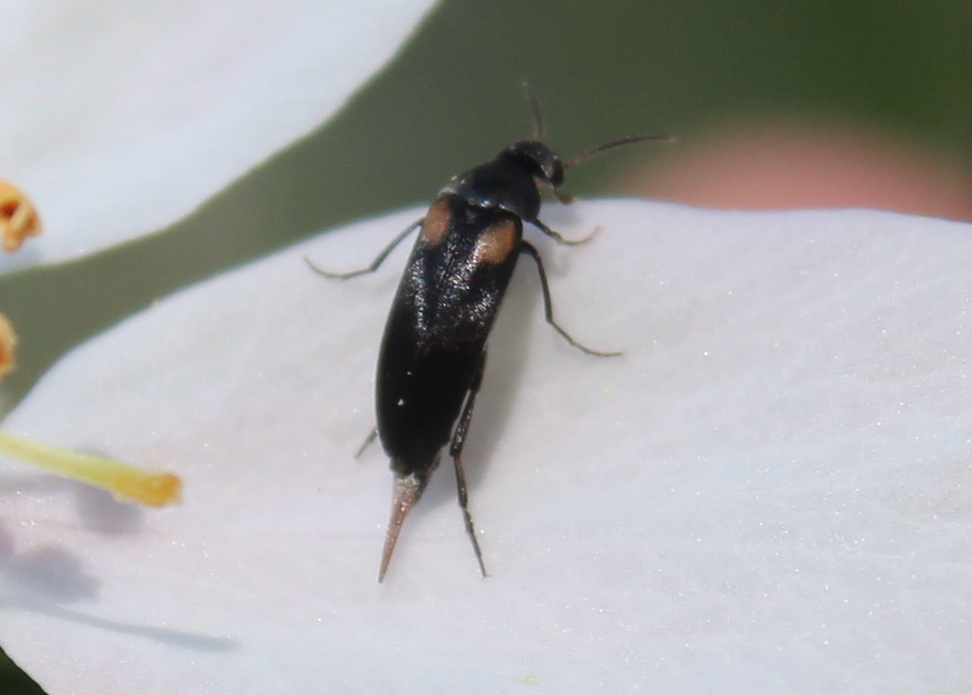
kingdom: Animalia
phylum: Arthropoda
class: Insecta
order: Coleoptera
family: Mordellidae
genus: Mordellochroa
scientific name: Mordellochroa scapularis
